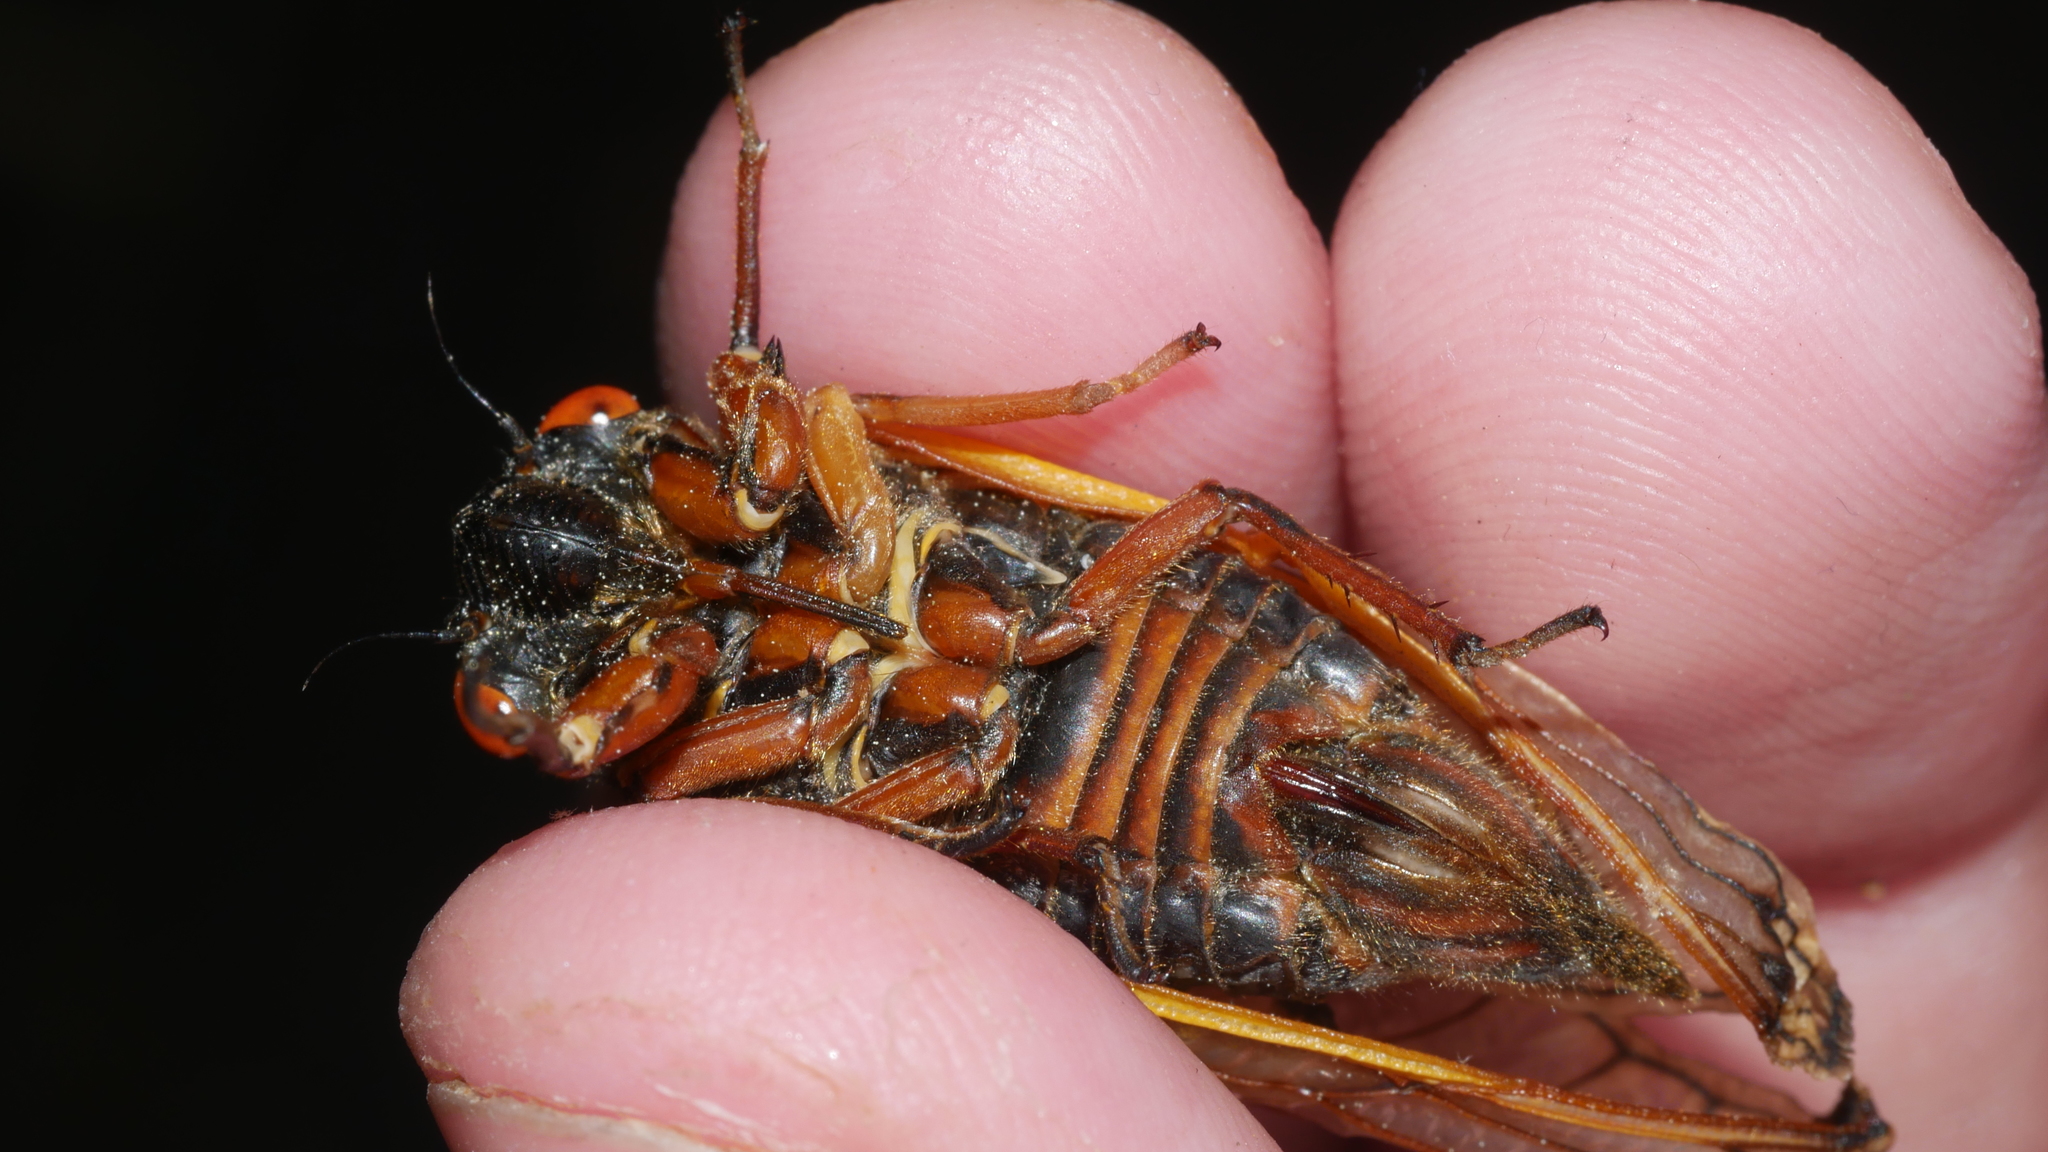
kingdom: Animalia
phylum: Arthropoda
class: Insecta
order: Hemiptera
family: Cicadidae
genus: Magicicada
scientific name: Magicicada septendecim
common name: Periodical cicada
